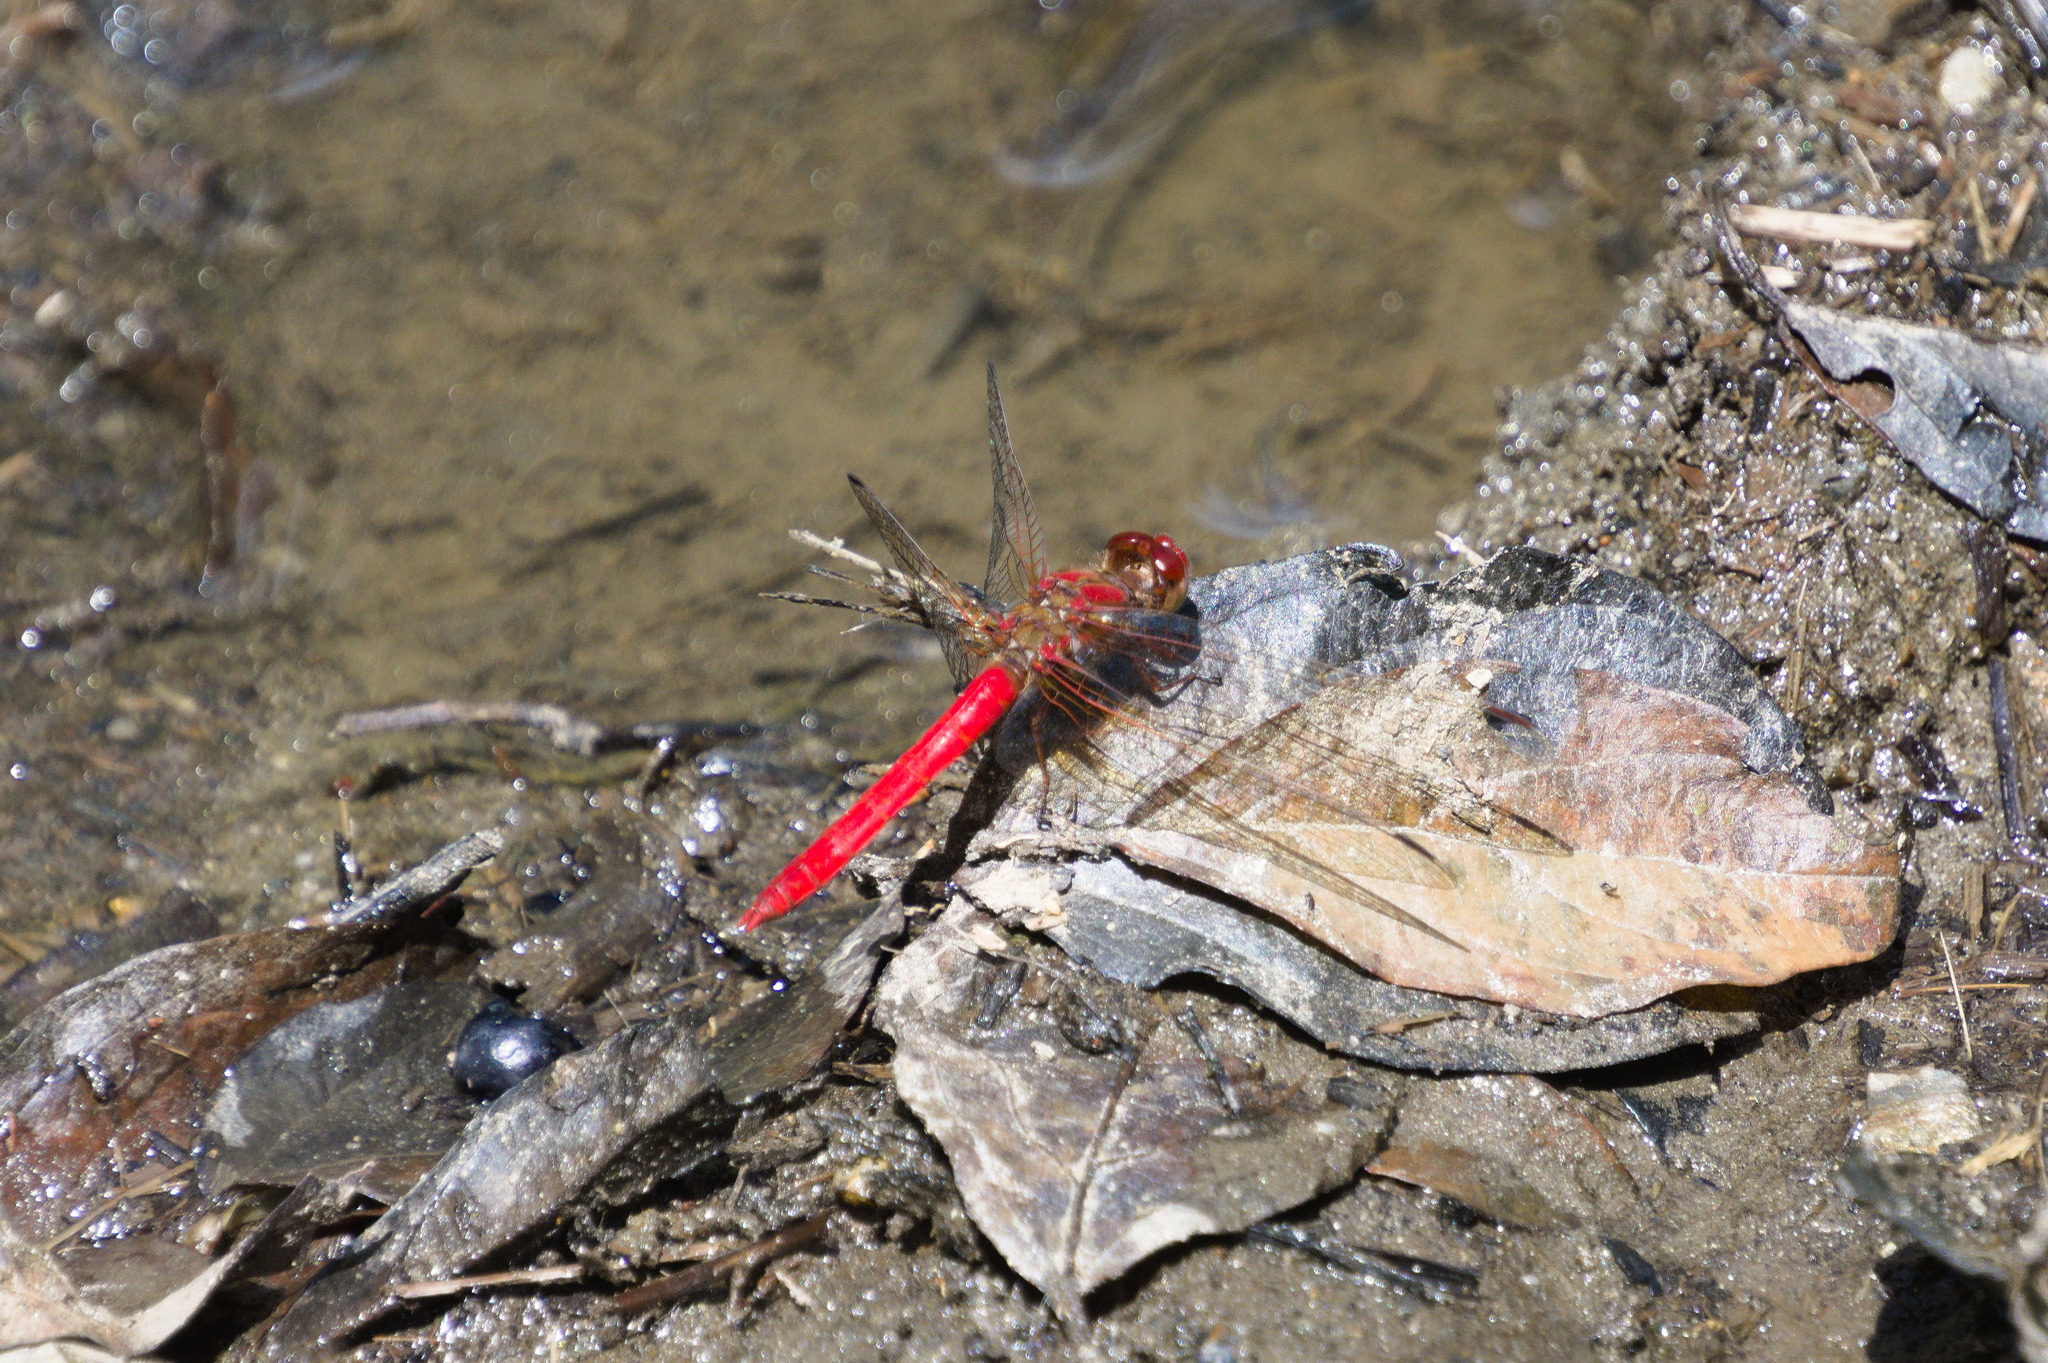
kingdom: Animalia
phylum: Arthropoda
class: Insecta
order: Odonata
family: Libellulidae
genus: Sympetrum
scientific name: Sympetrum gilvum
